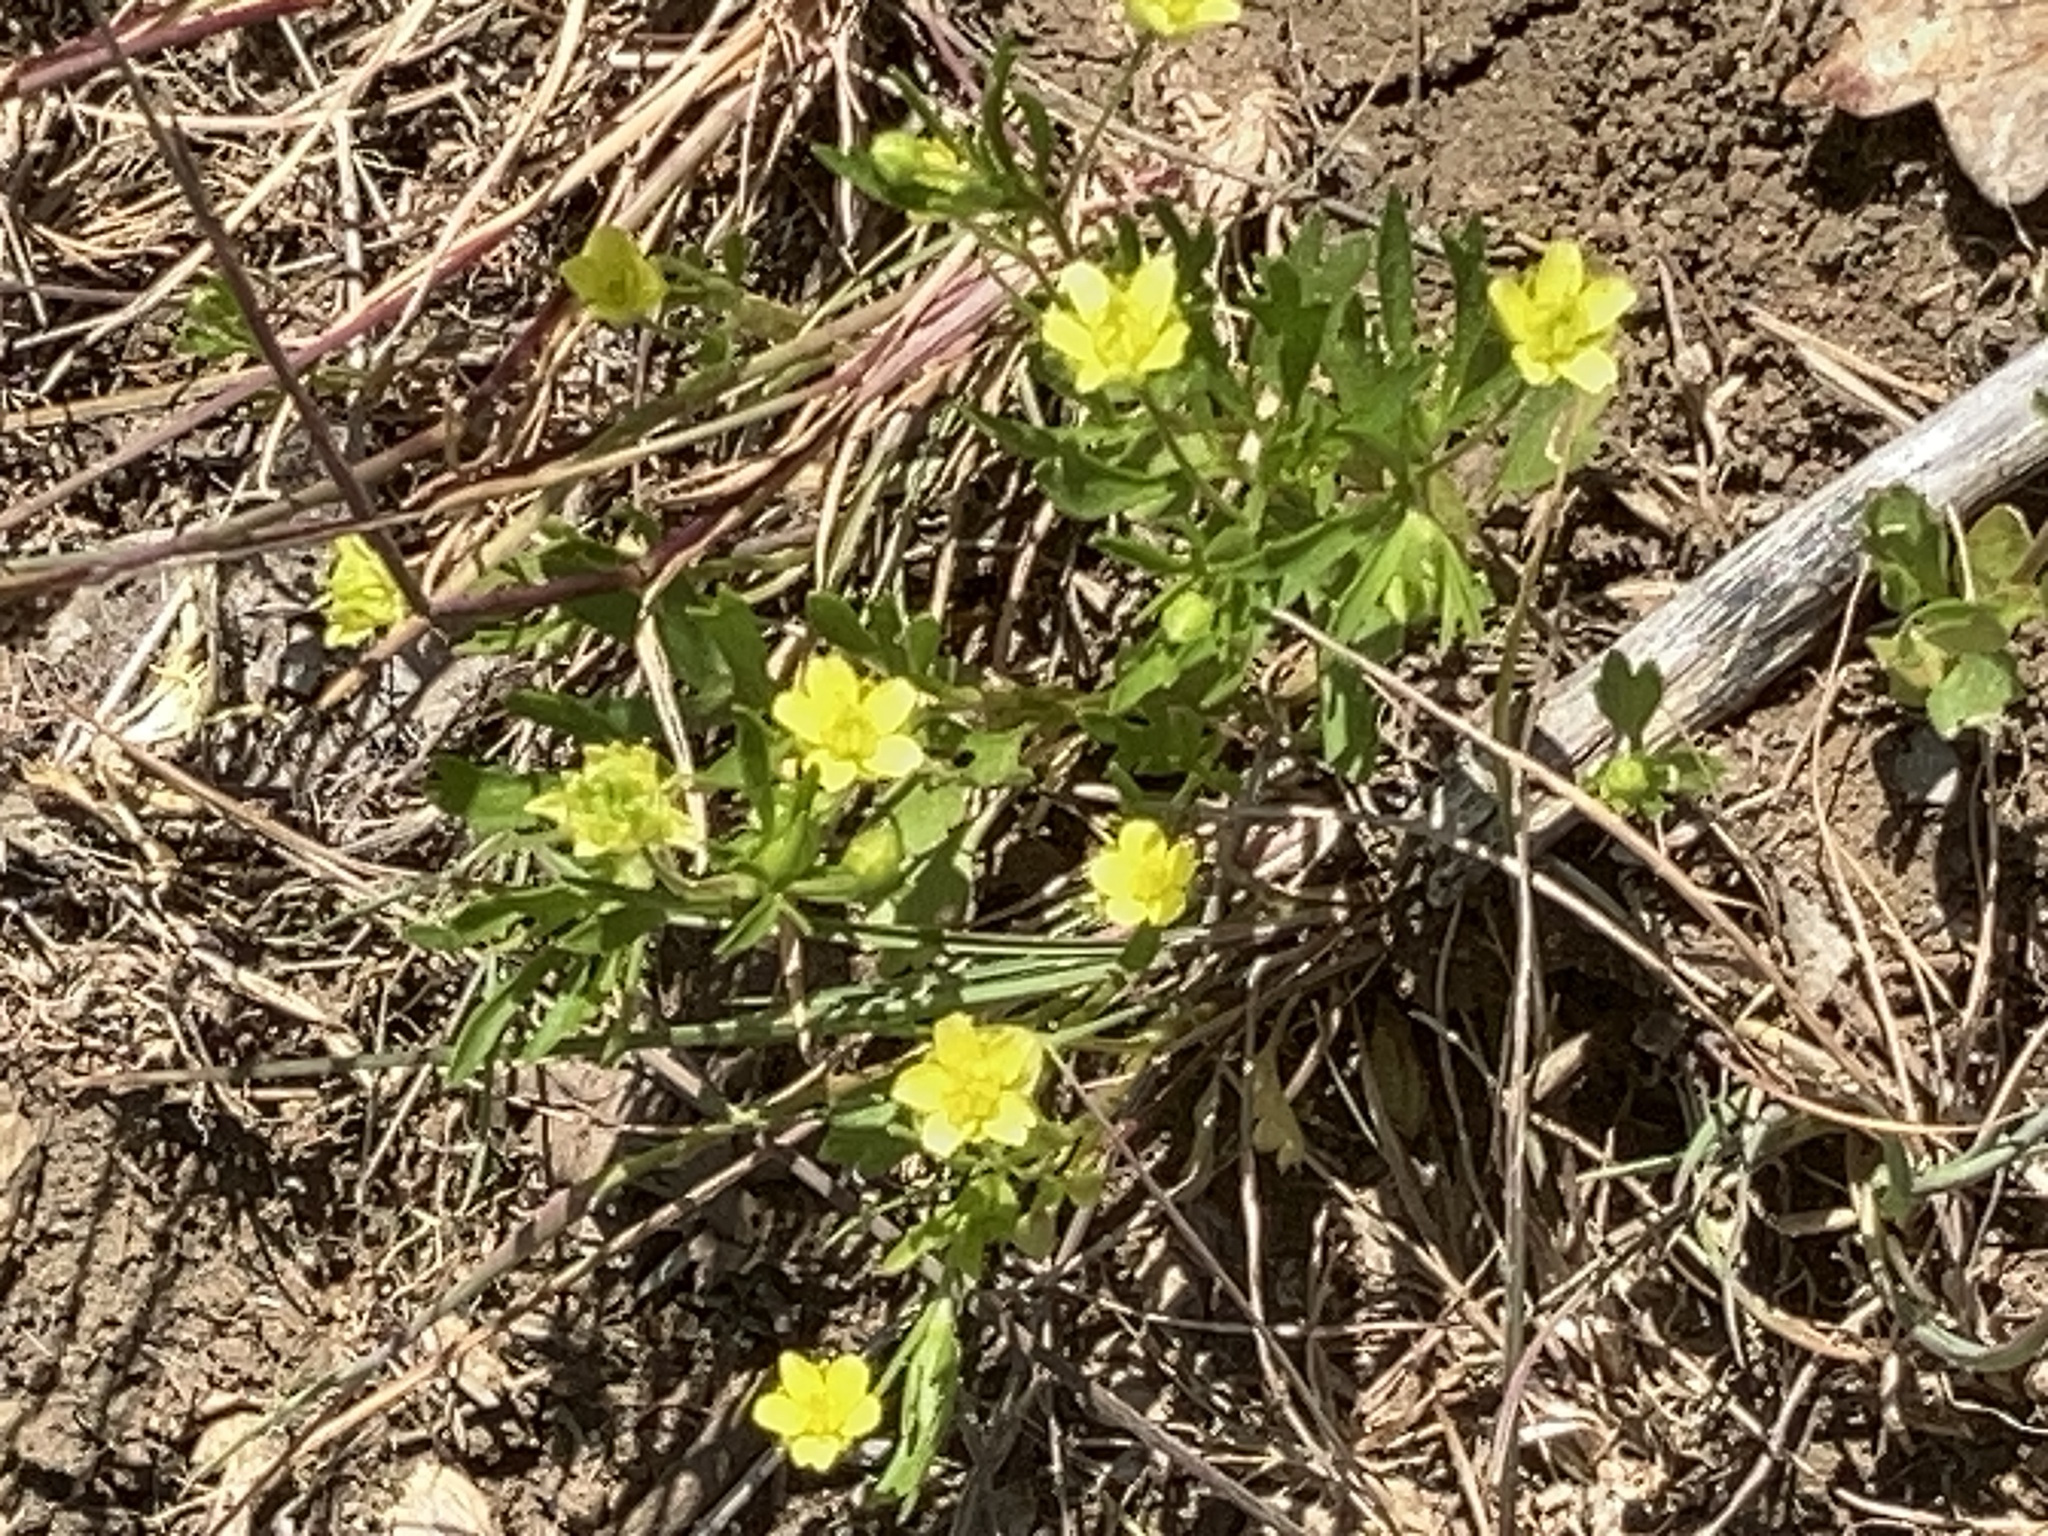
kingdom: Plantae
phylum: Tracheophyta
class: Magnoliopsida
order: Ranunculales
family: Ranunculaceae
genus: Ranunculus
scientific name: Ranunculus muricatus
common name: Rough-fruited buttercup
